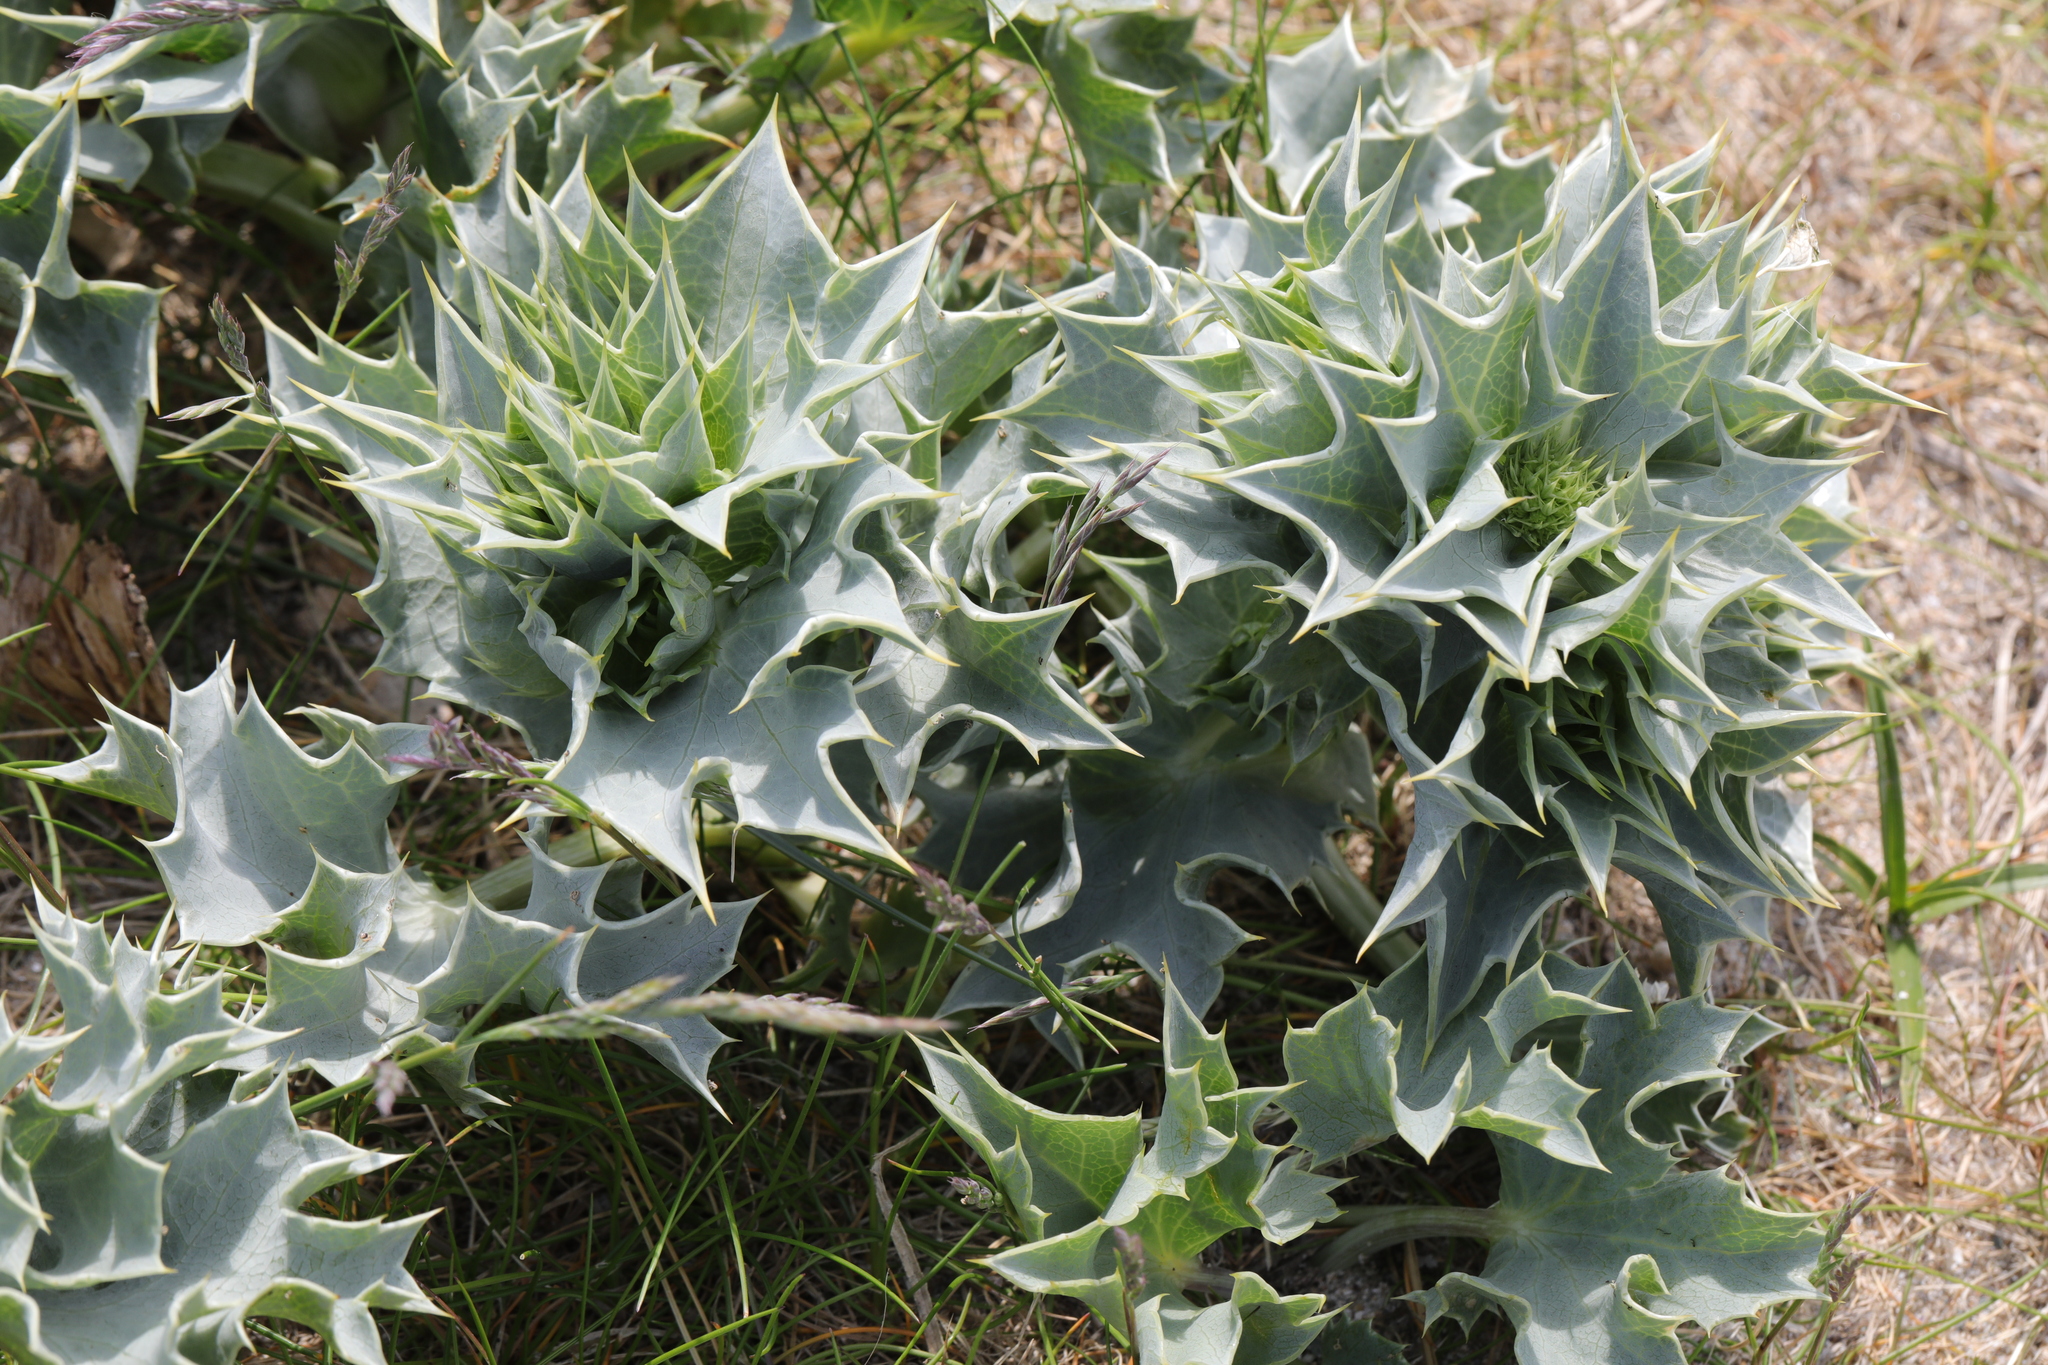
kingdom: Plantae
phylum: Tracheophyta
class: Magnoliopsida
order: Apiales
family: Apiaceae
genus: Eryngium
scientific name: Eryngium maritimum
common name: Sea-holly
